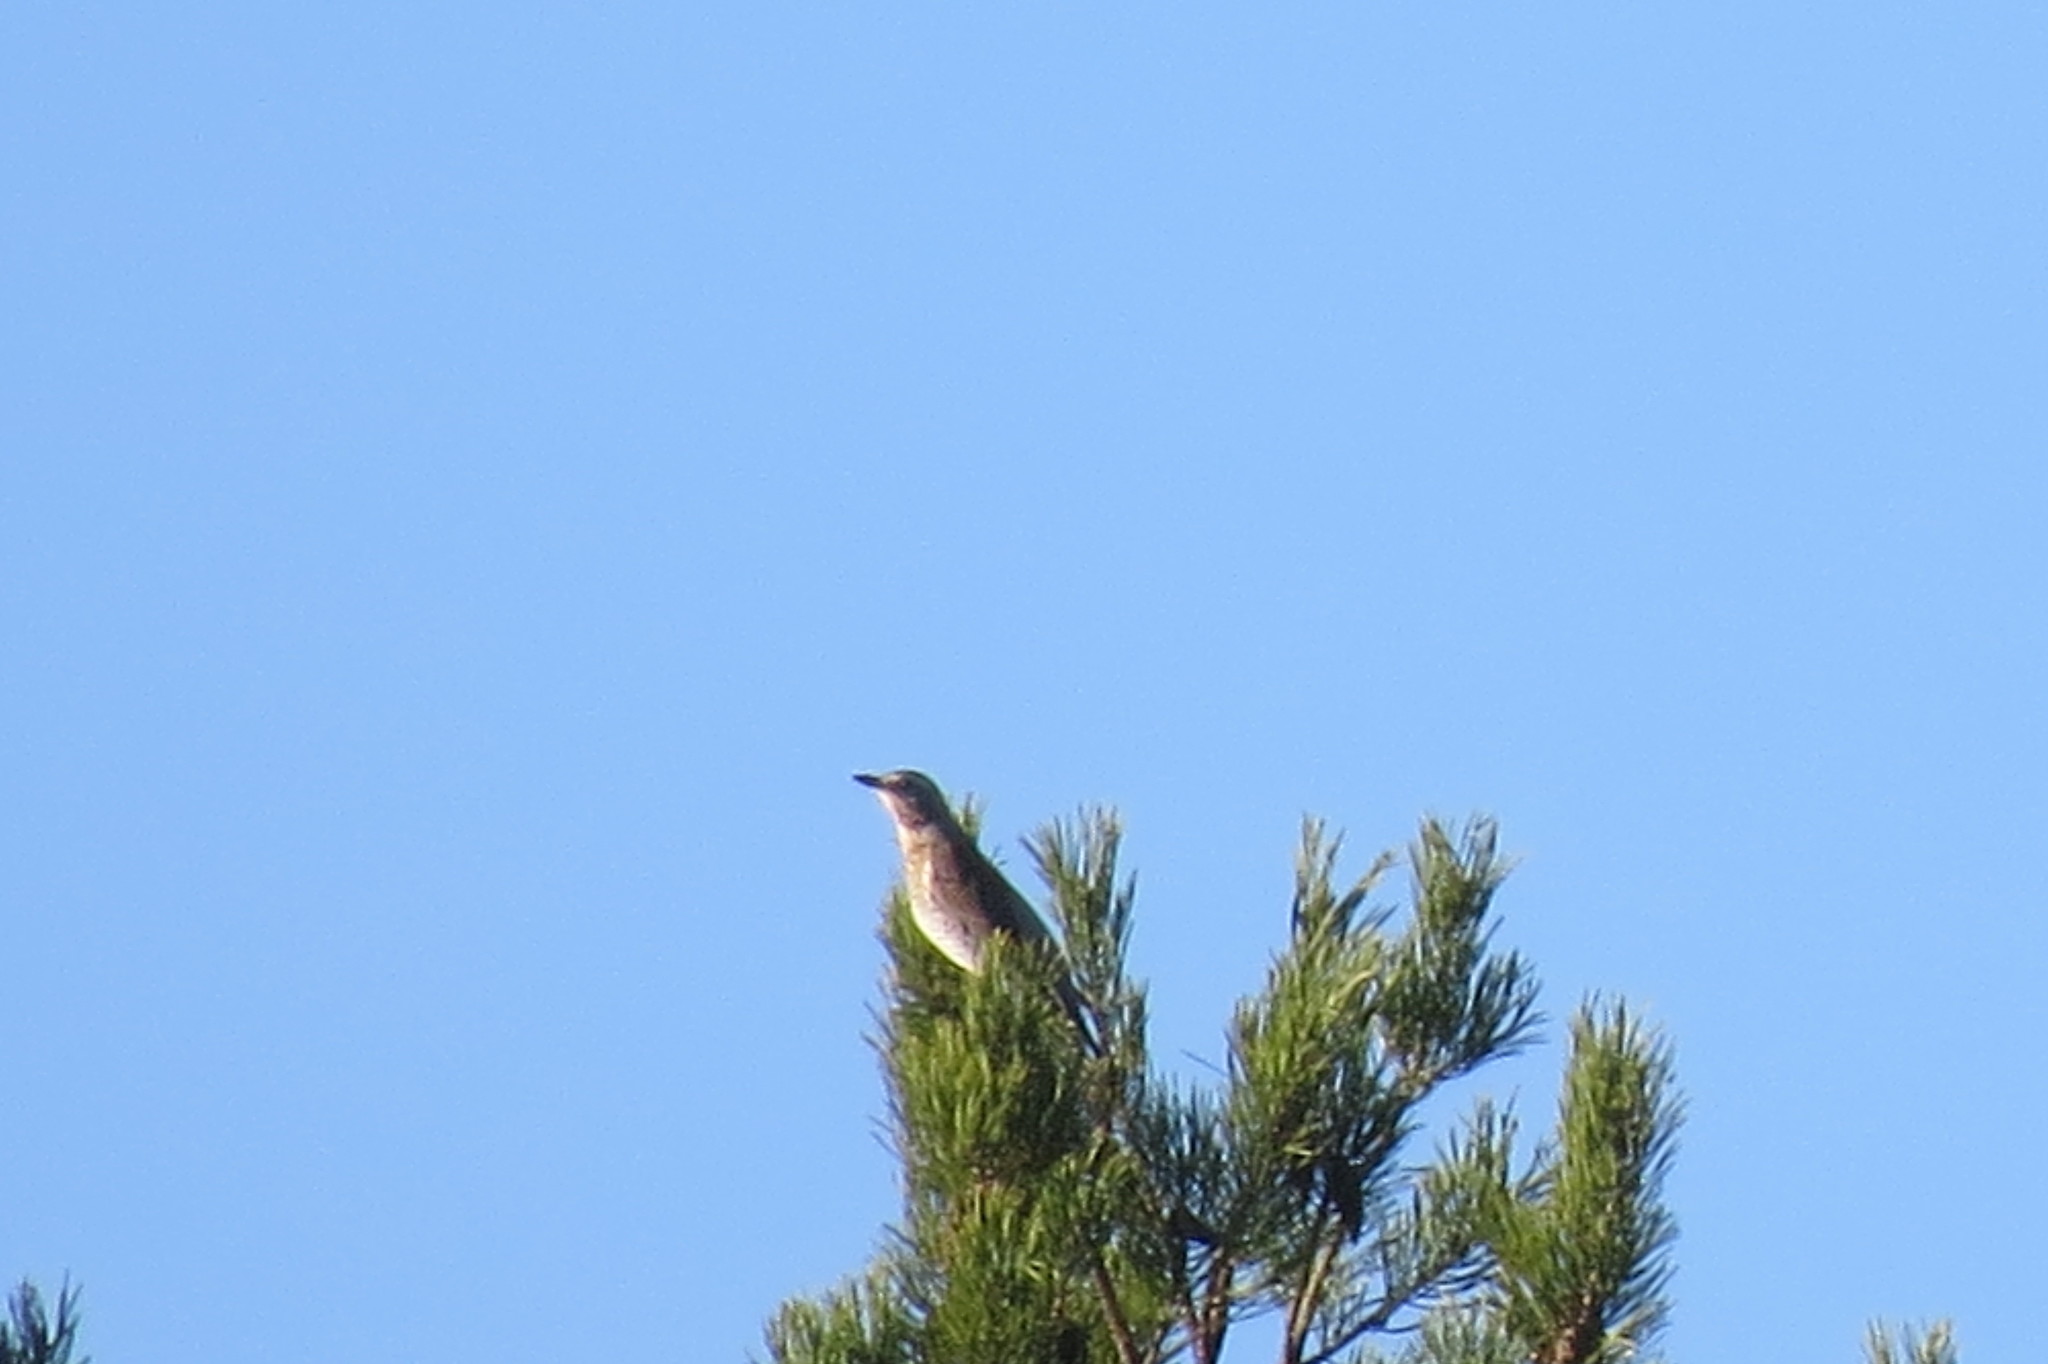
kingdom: Animalia
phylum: Chordata
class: Aves
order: Passeriformes
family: Turdidae
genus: Turdus
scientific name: Turdus pilaris
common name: Fieldfare
